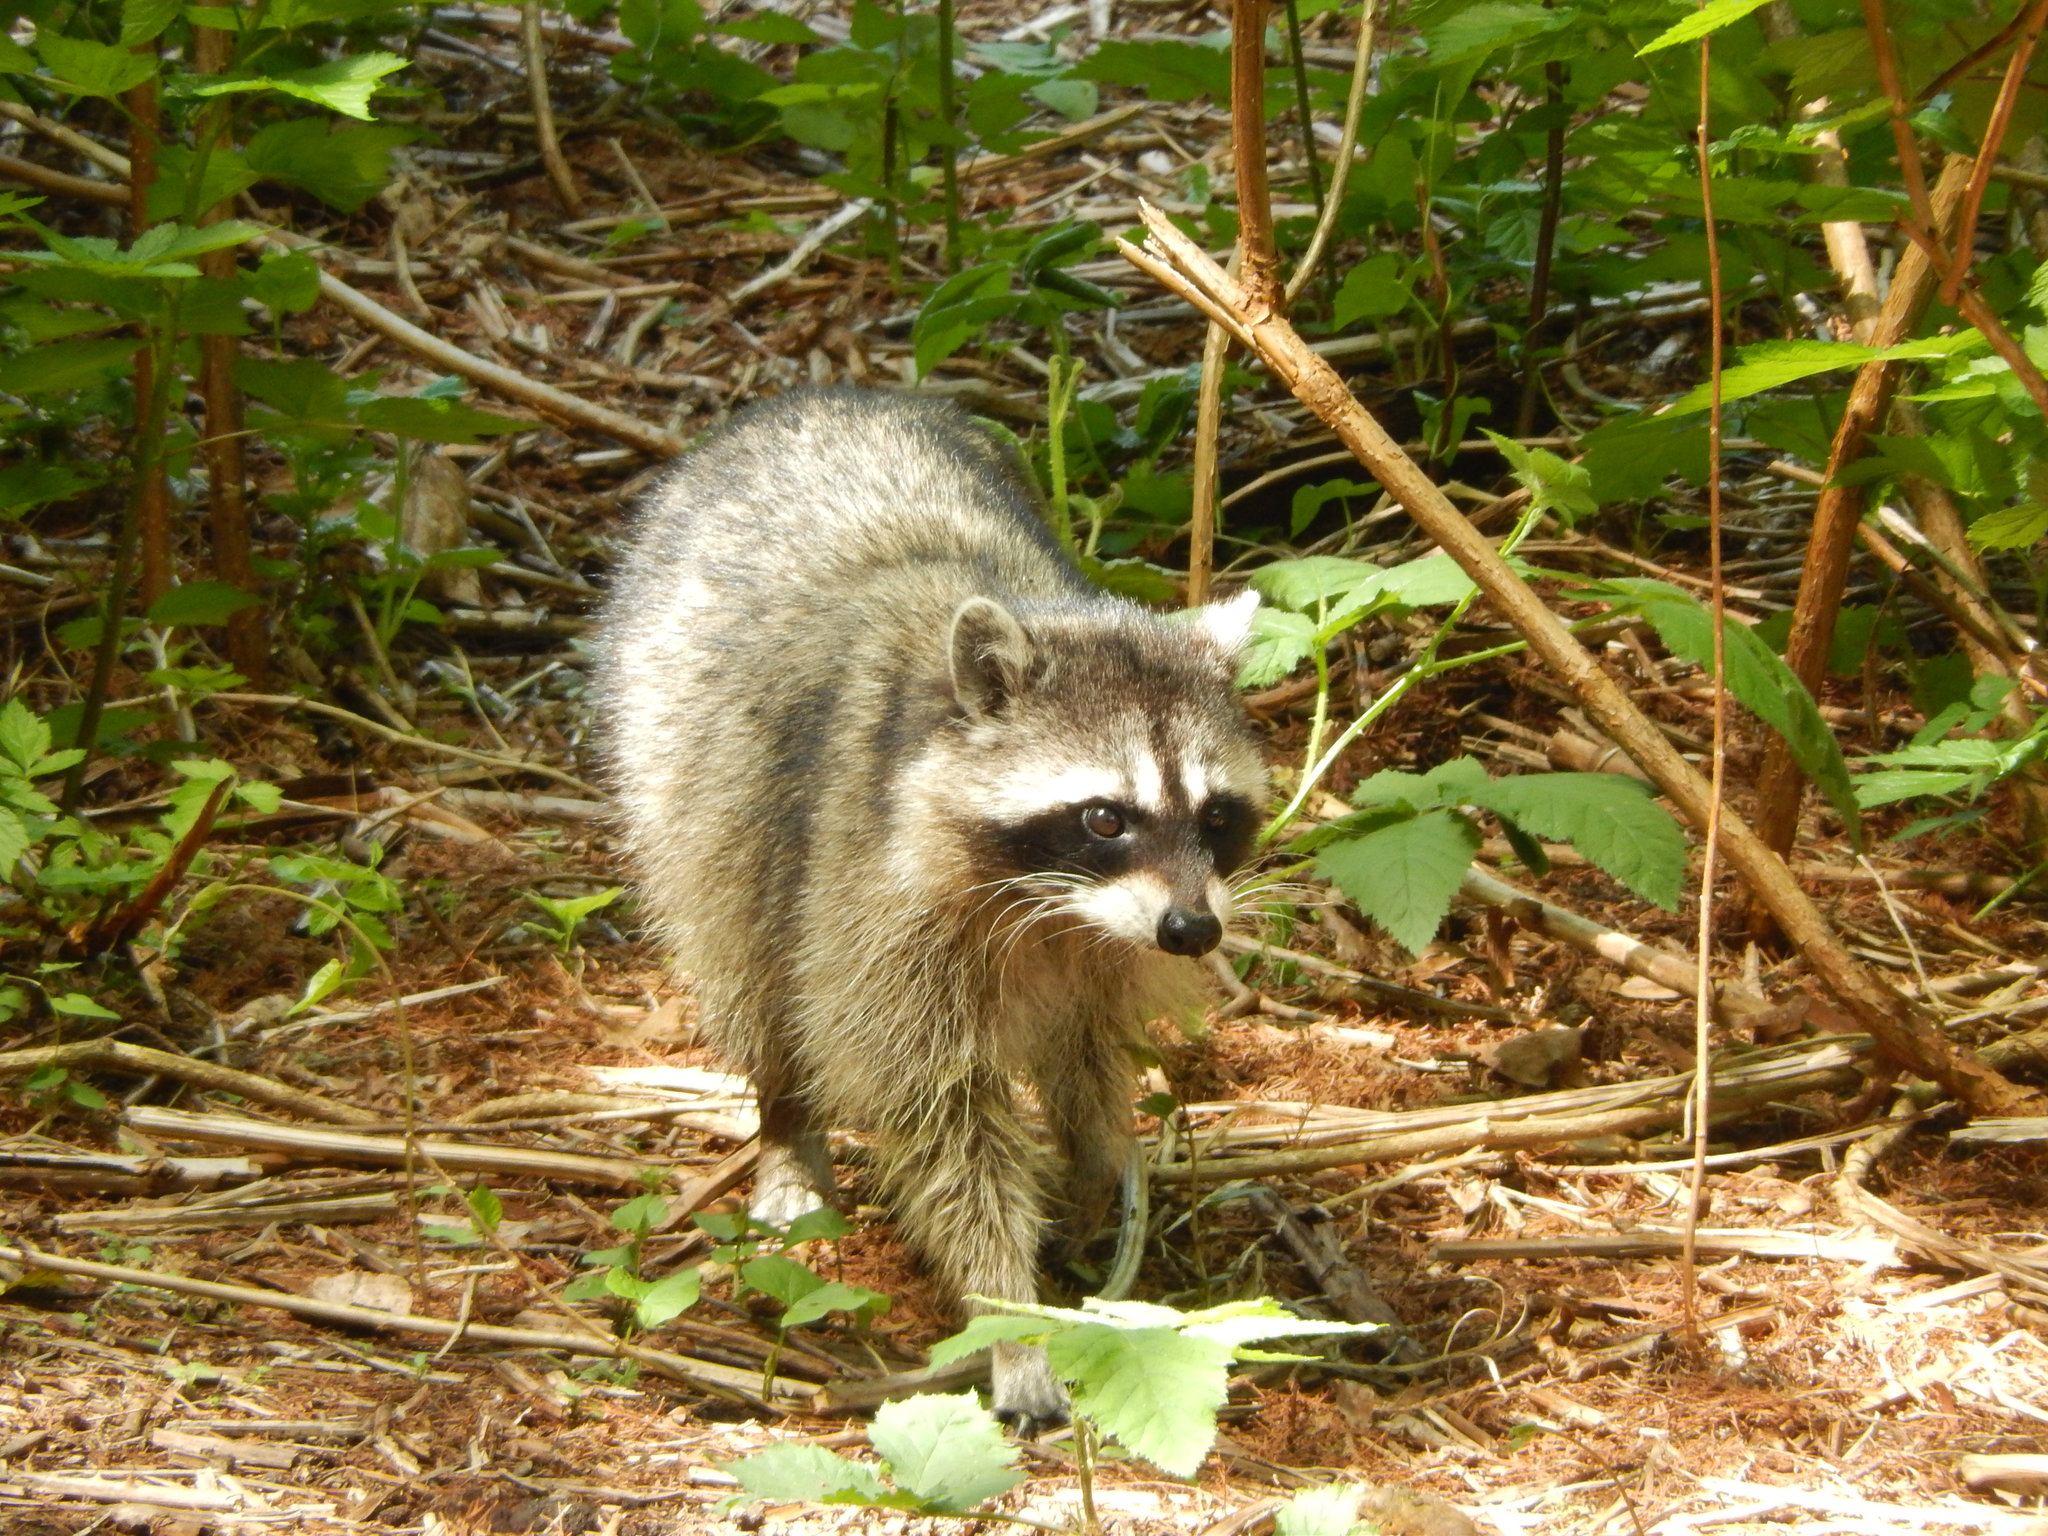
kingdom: Animalia
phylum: Chordata
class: Mammalia
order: Carnivora
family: Procyonidae
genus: Procyon
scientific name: Procyon lotor
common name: Raccoon
